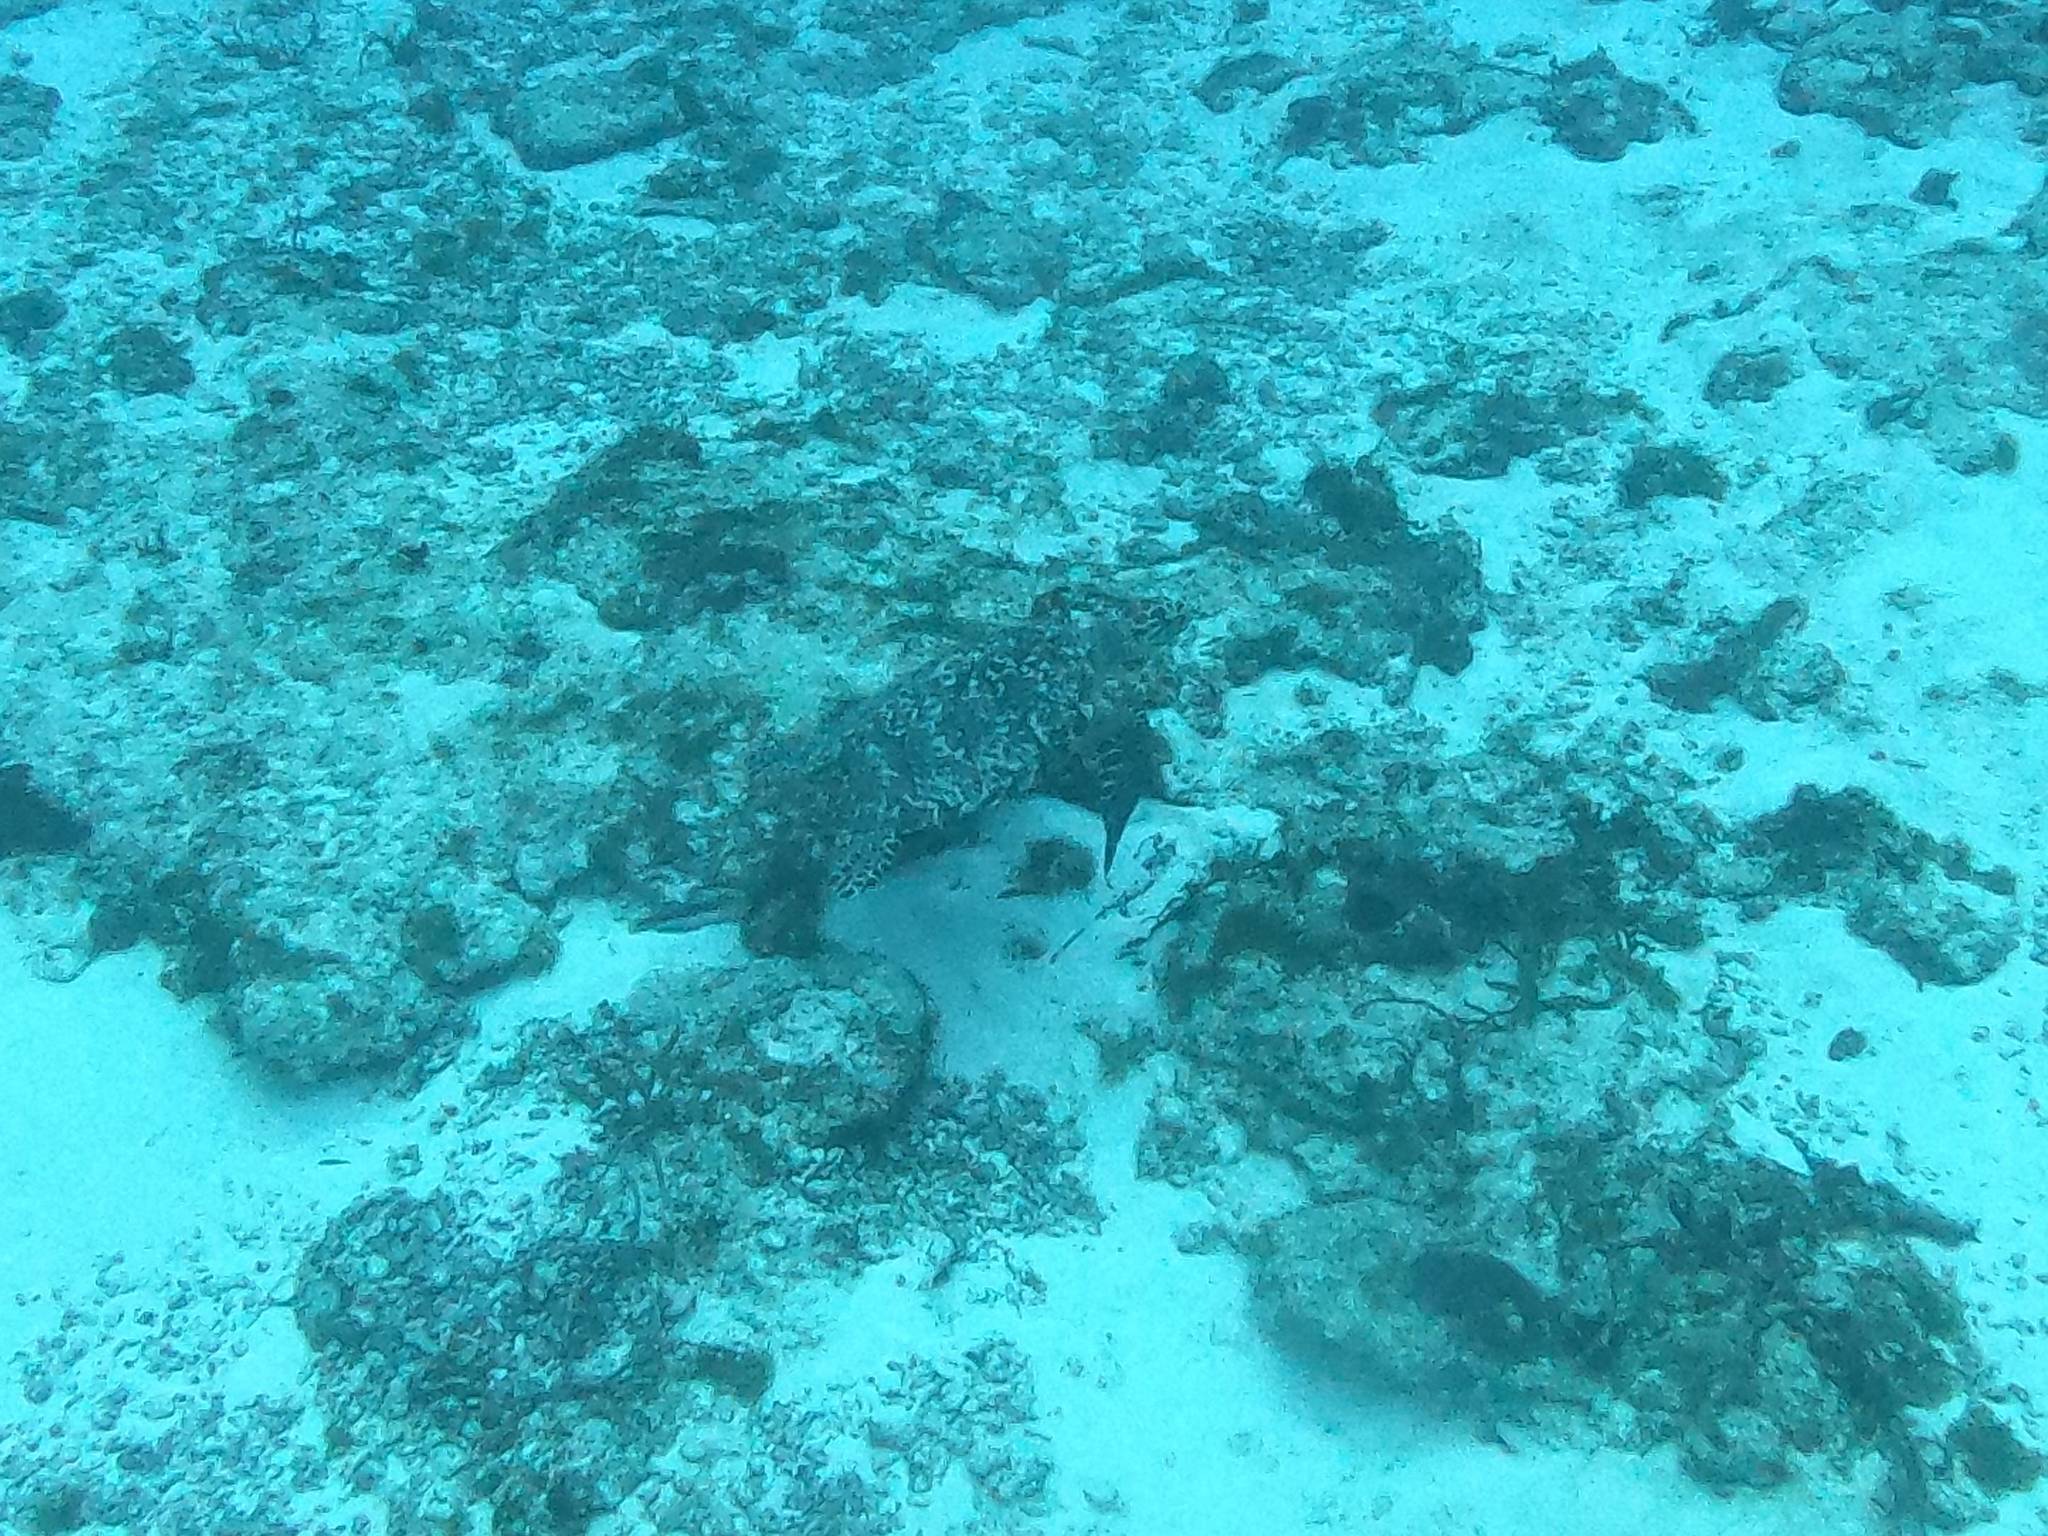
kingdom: Animalia
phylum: Chordata
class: Testudines
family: Cheloniidae
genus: Eretmochelys
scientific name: Eretmochelys imbricata
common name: Hawksbill turtle
